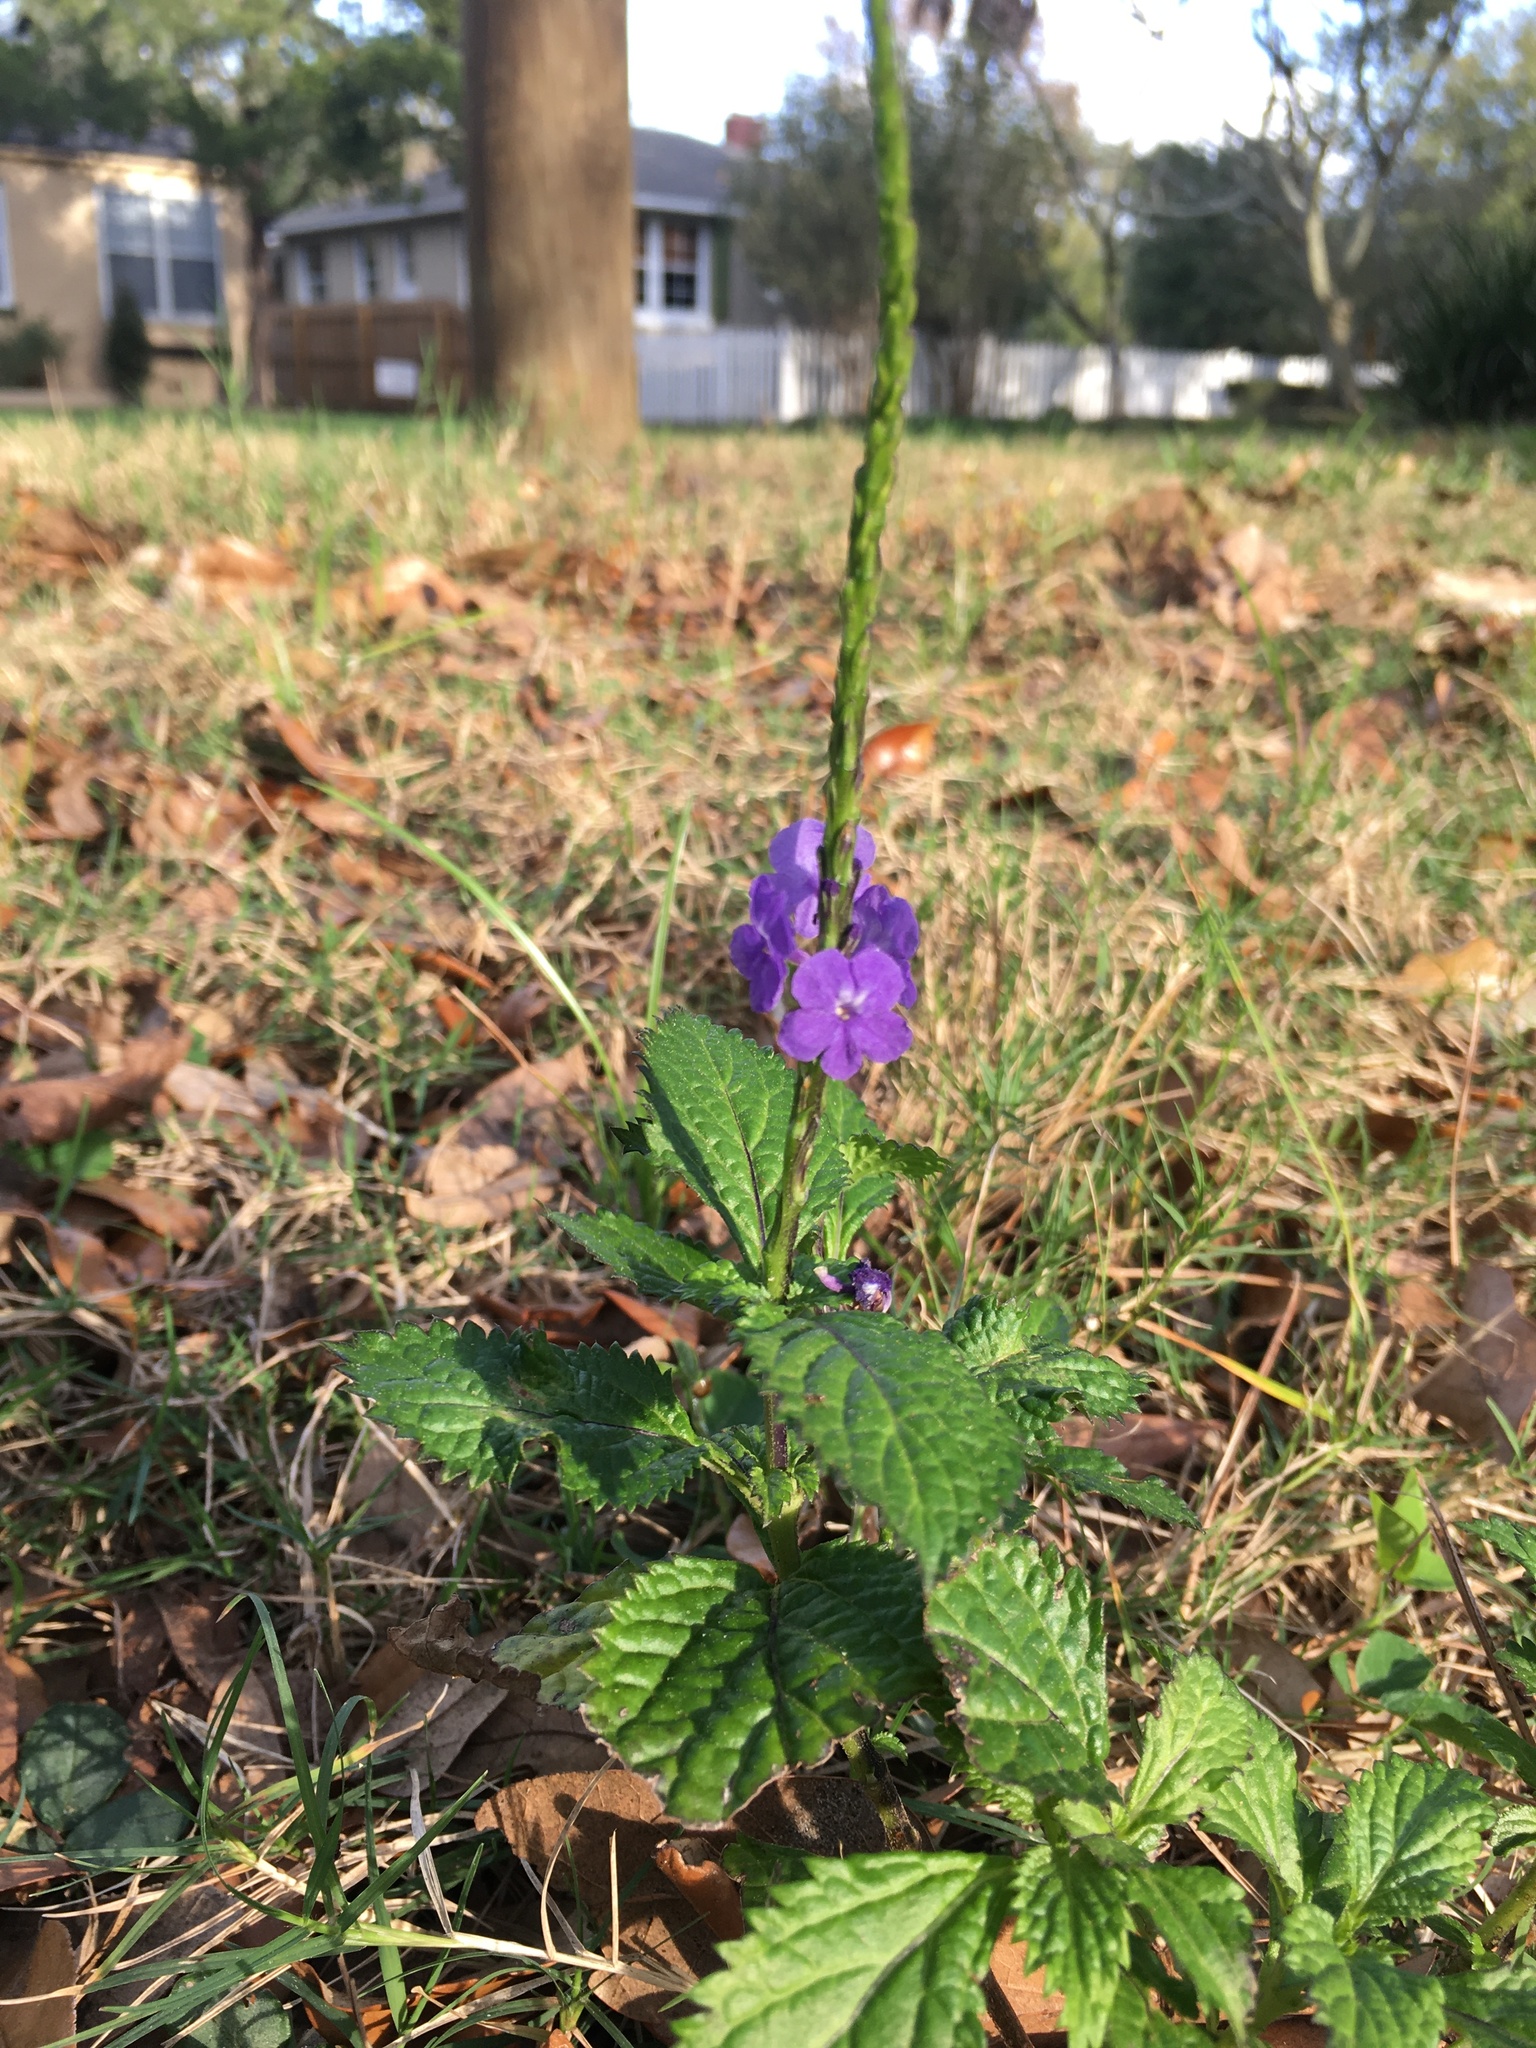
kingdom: Plantae
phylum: Tracheophyta
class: Magnoliopsida
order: Lamiales
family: Verbenaceae
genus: Stachytarpheta
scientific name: Stachytarpheta cayennensis
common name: Cayenne porterweed
